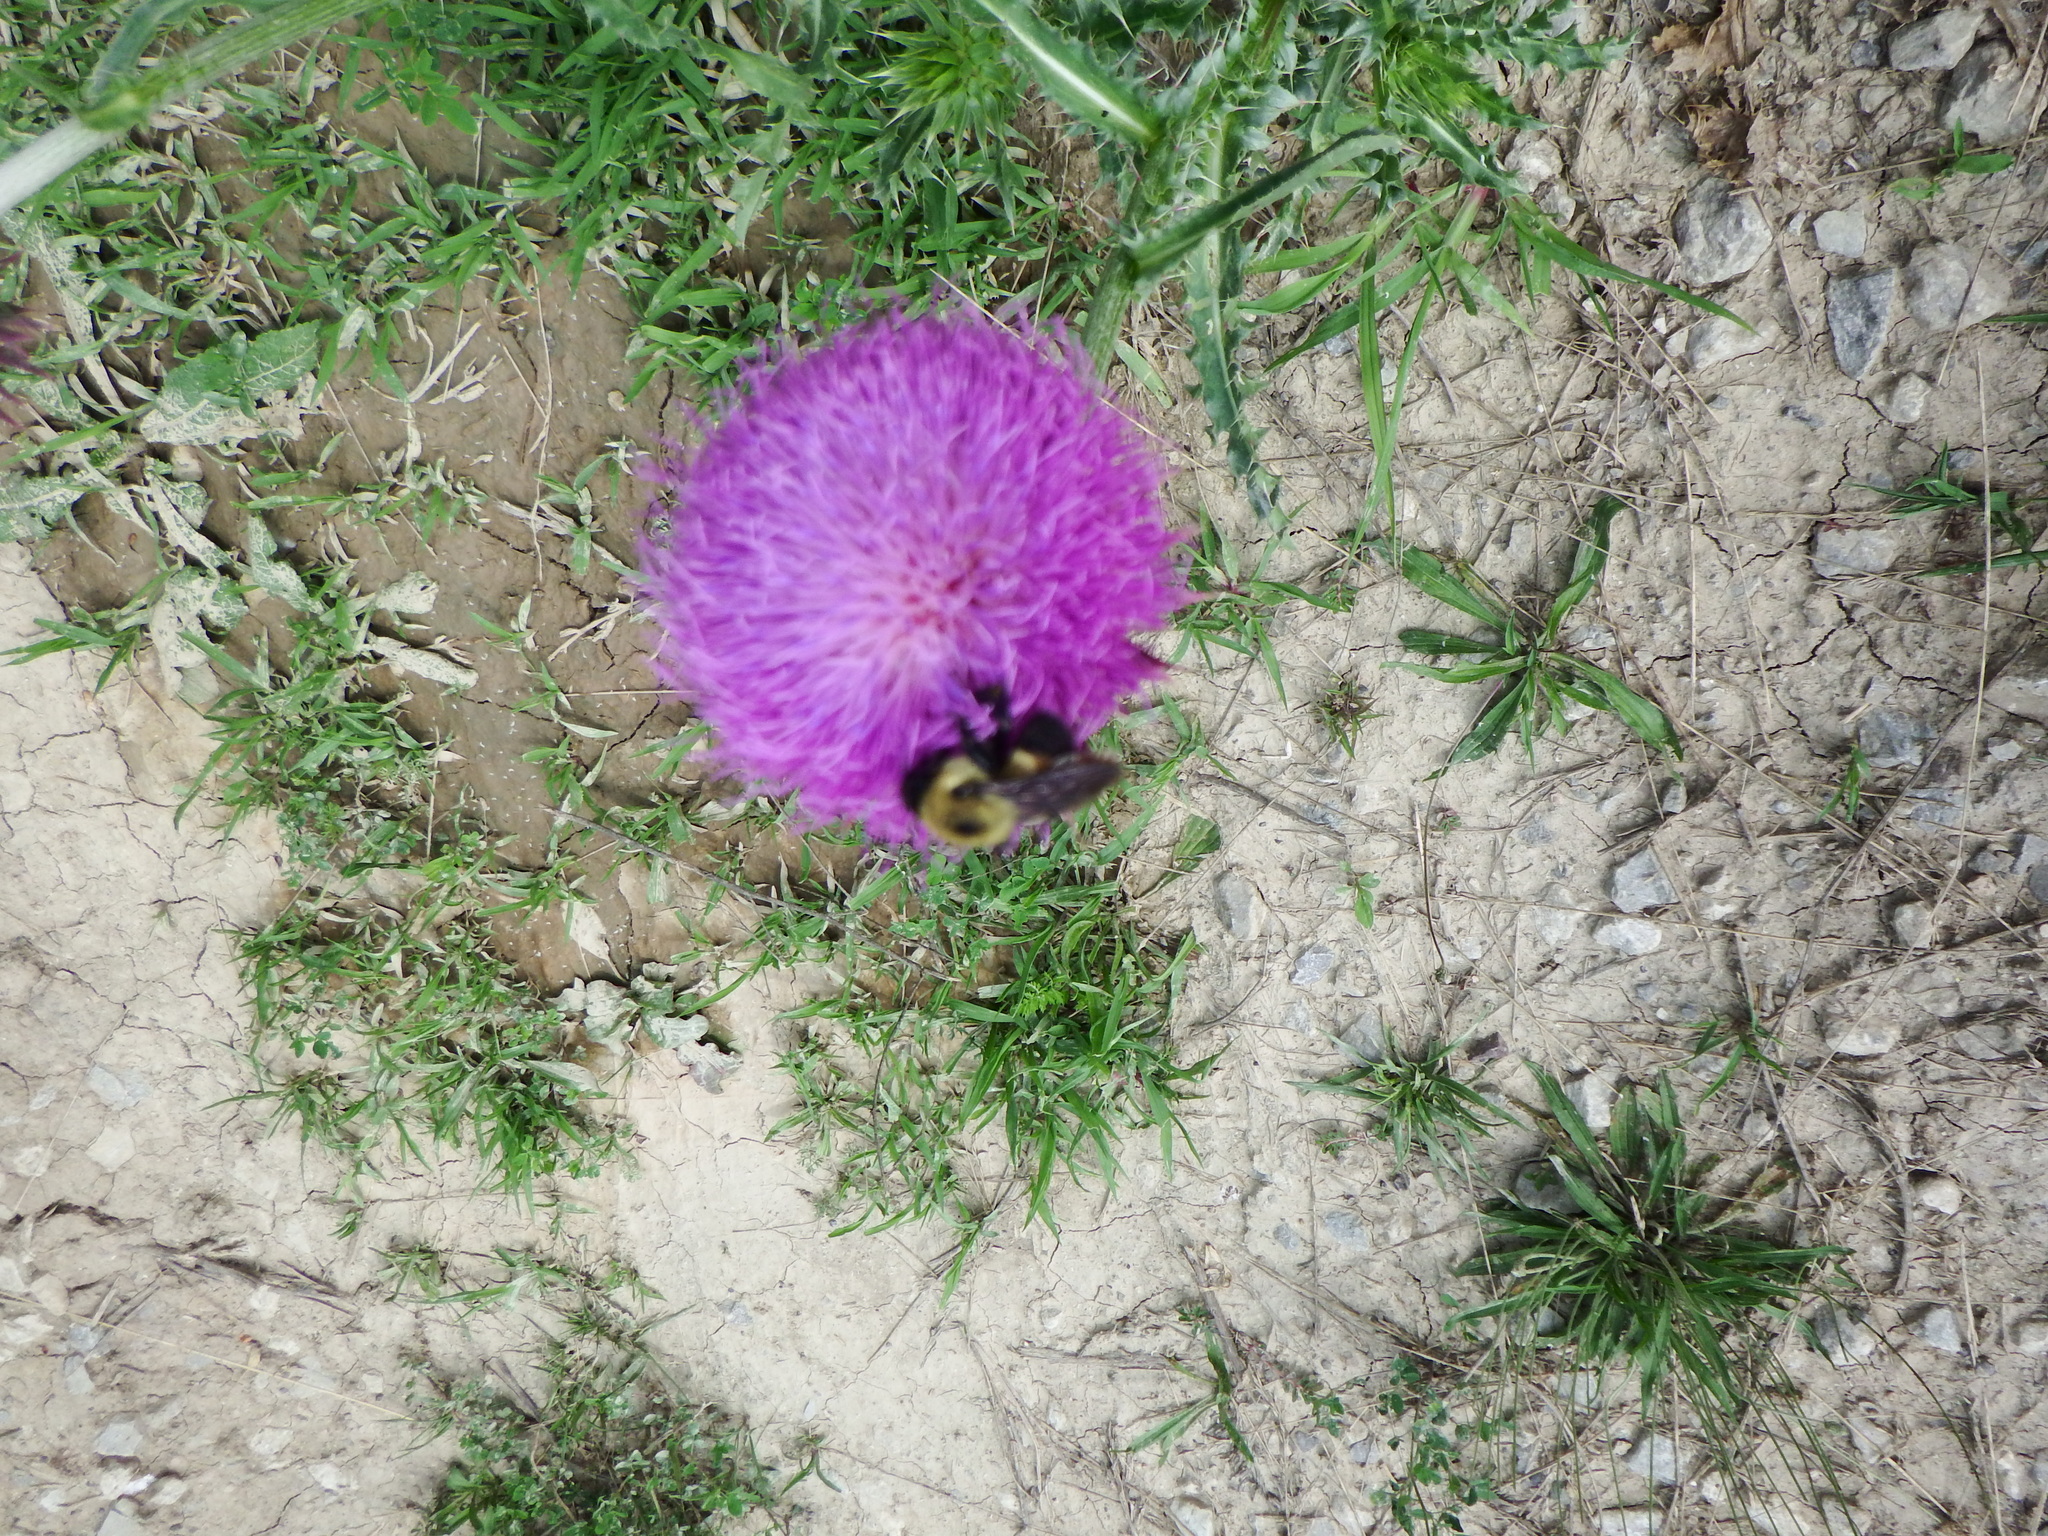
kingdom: Animalia
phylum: Arthropoda
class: Insecta
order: Hymenoptera
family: Apidae
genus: Bombus
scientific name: Bombus griseocollis
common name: Brown-belted bumble bee
